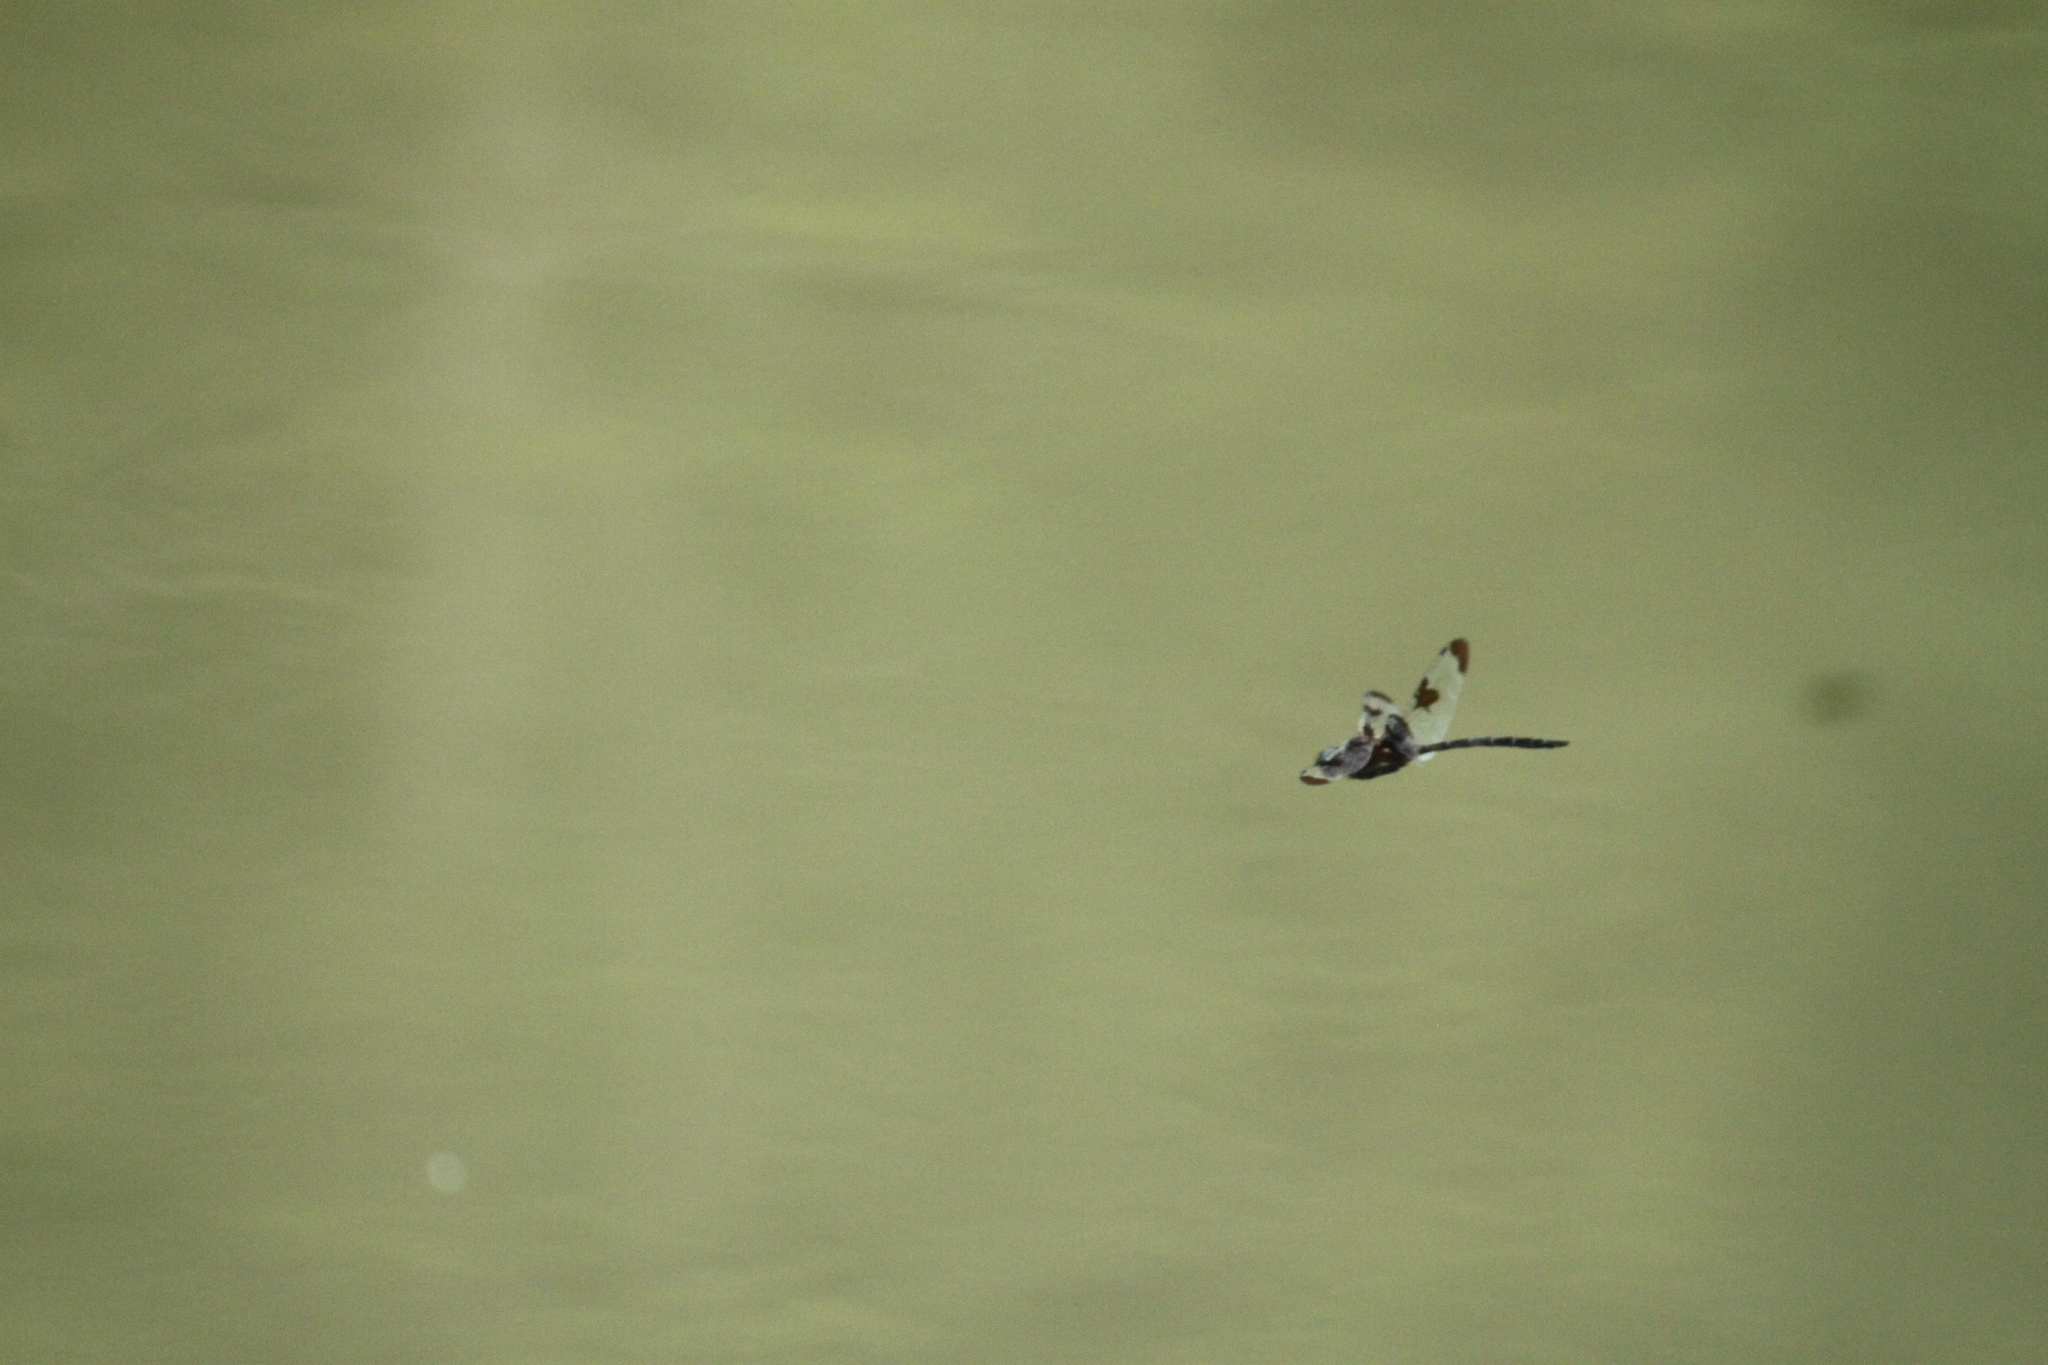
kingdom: Animalia
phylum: Arthropoda
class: Insecta
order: Odonata
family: Corduliidae
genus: Epitheca
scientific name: Epitheca princeps
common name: Prince baskettail
